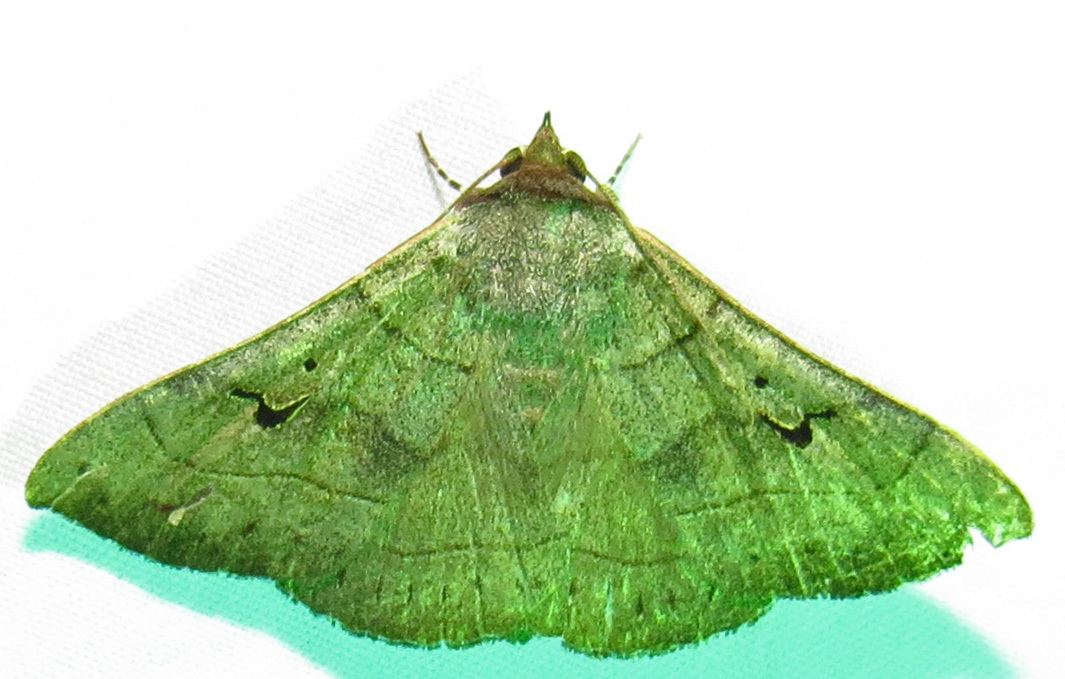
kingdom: Animalia
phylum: Arthropoda
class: Insecta
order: Lepidoptera
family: Erebidae
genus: Panopoda
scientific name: Panopoda carneicosta
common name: Brown panopoda moth
